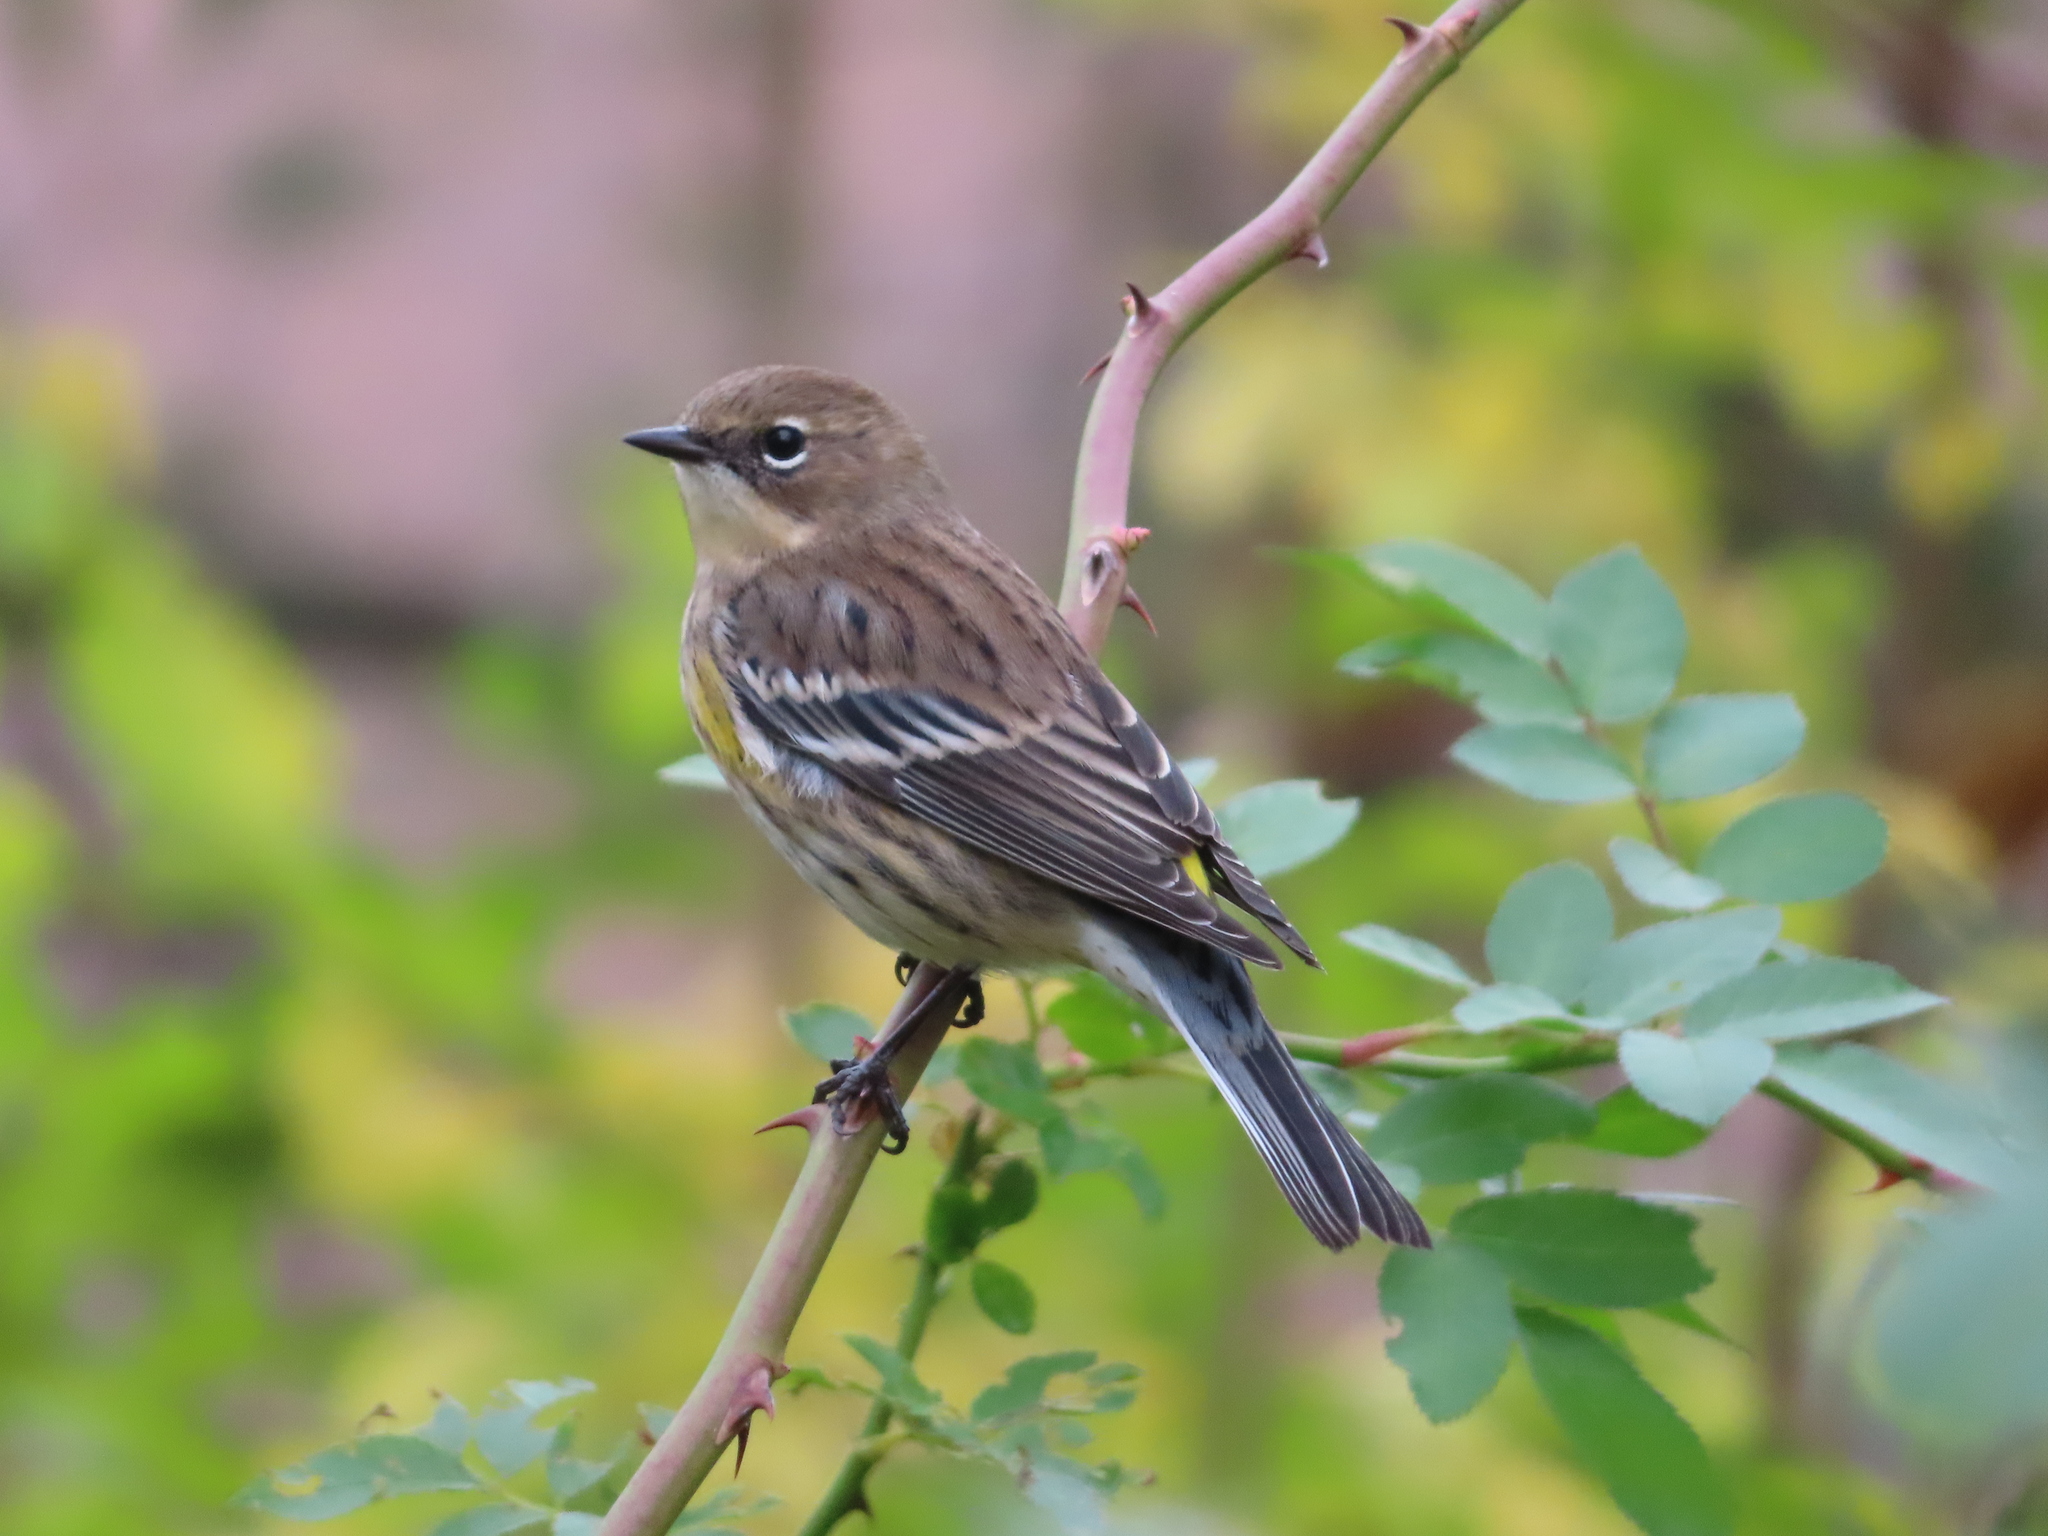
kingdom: Animalia
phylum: Chordata
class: Aves
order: Passeriformes
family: Parulidae
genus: Setophaga
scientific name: Setophaga coronata
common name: Myrtle warbler
